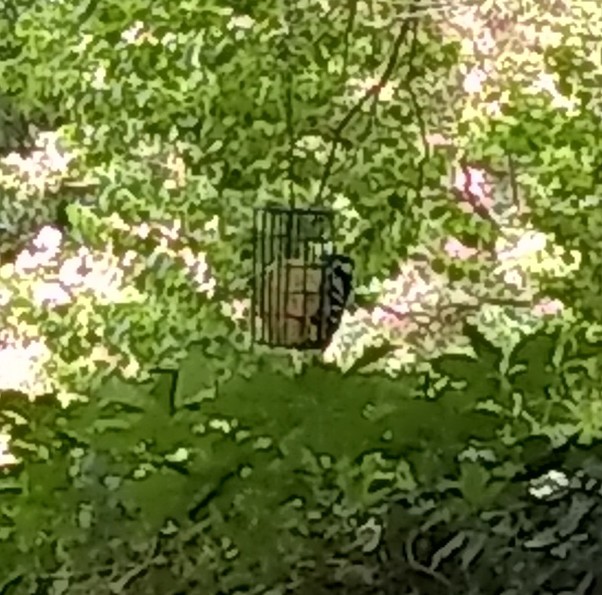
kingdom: Animalia
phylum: Chordata
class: Aves
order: Piciformes
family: Picidae
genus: Dryobates
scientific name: Dryobates pubescens
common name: Downy woodpecker
